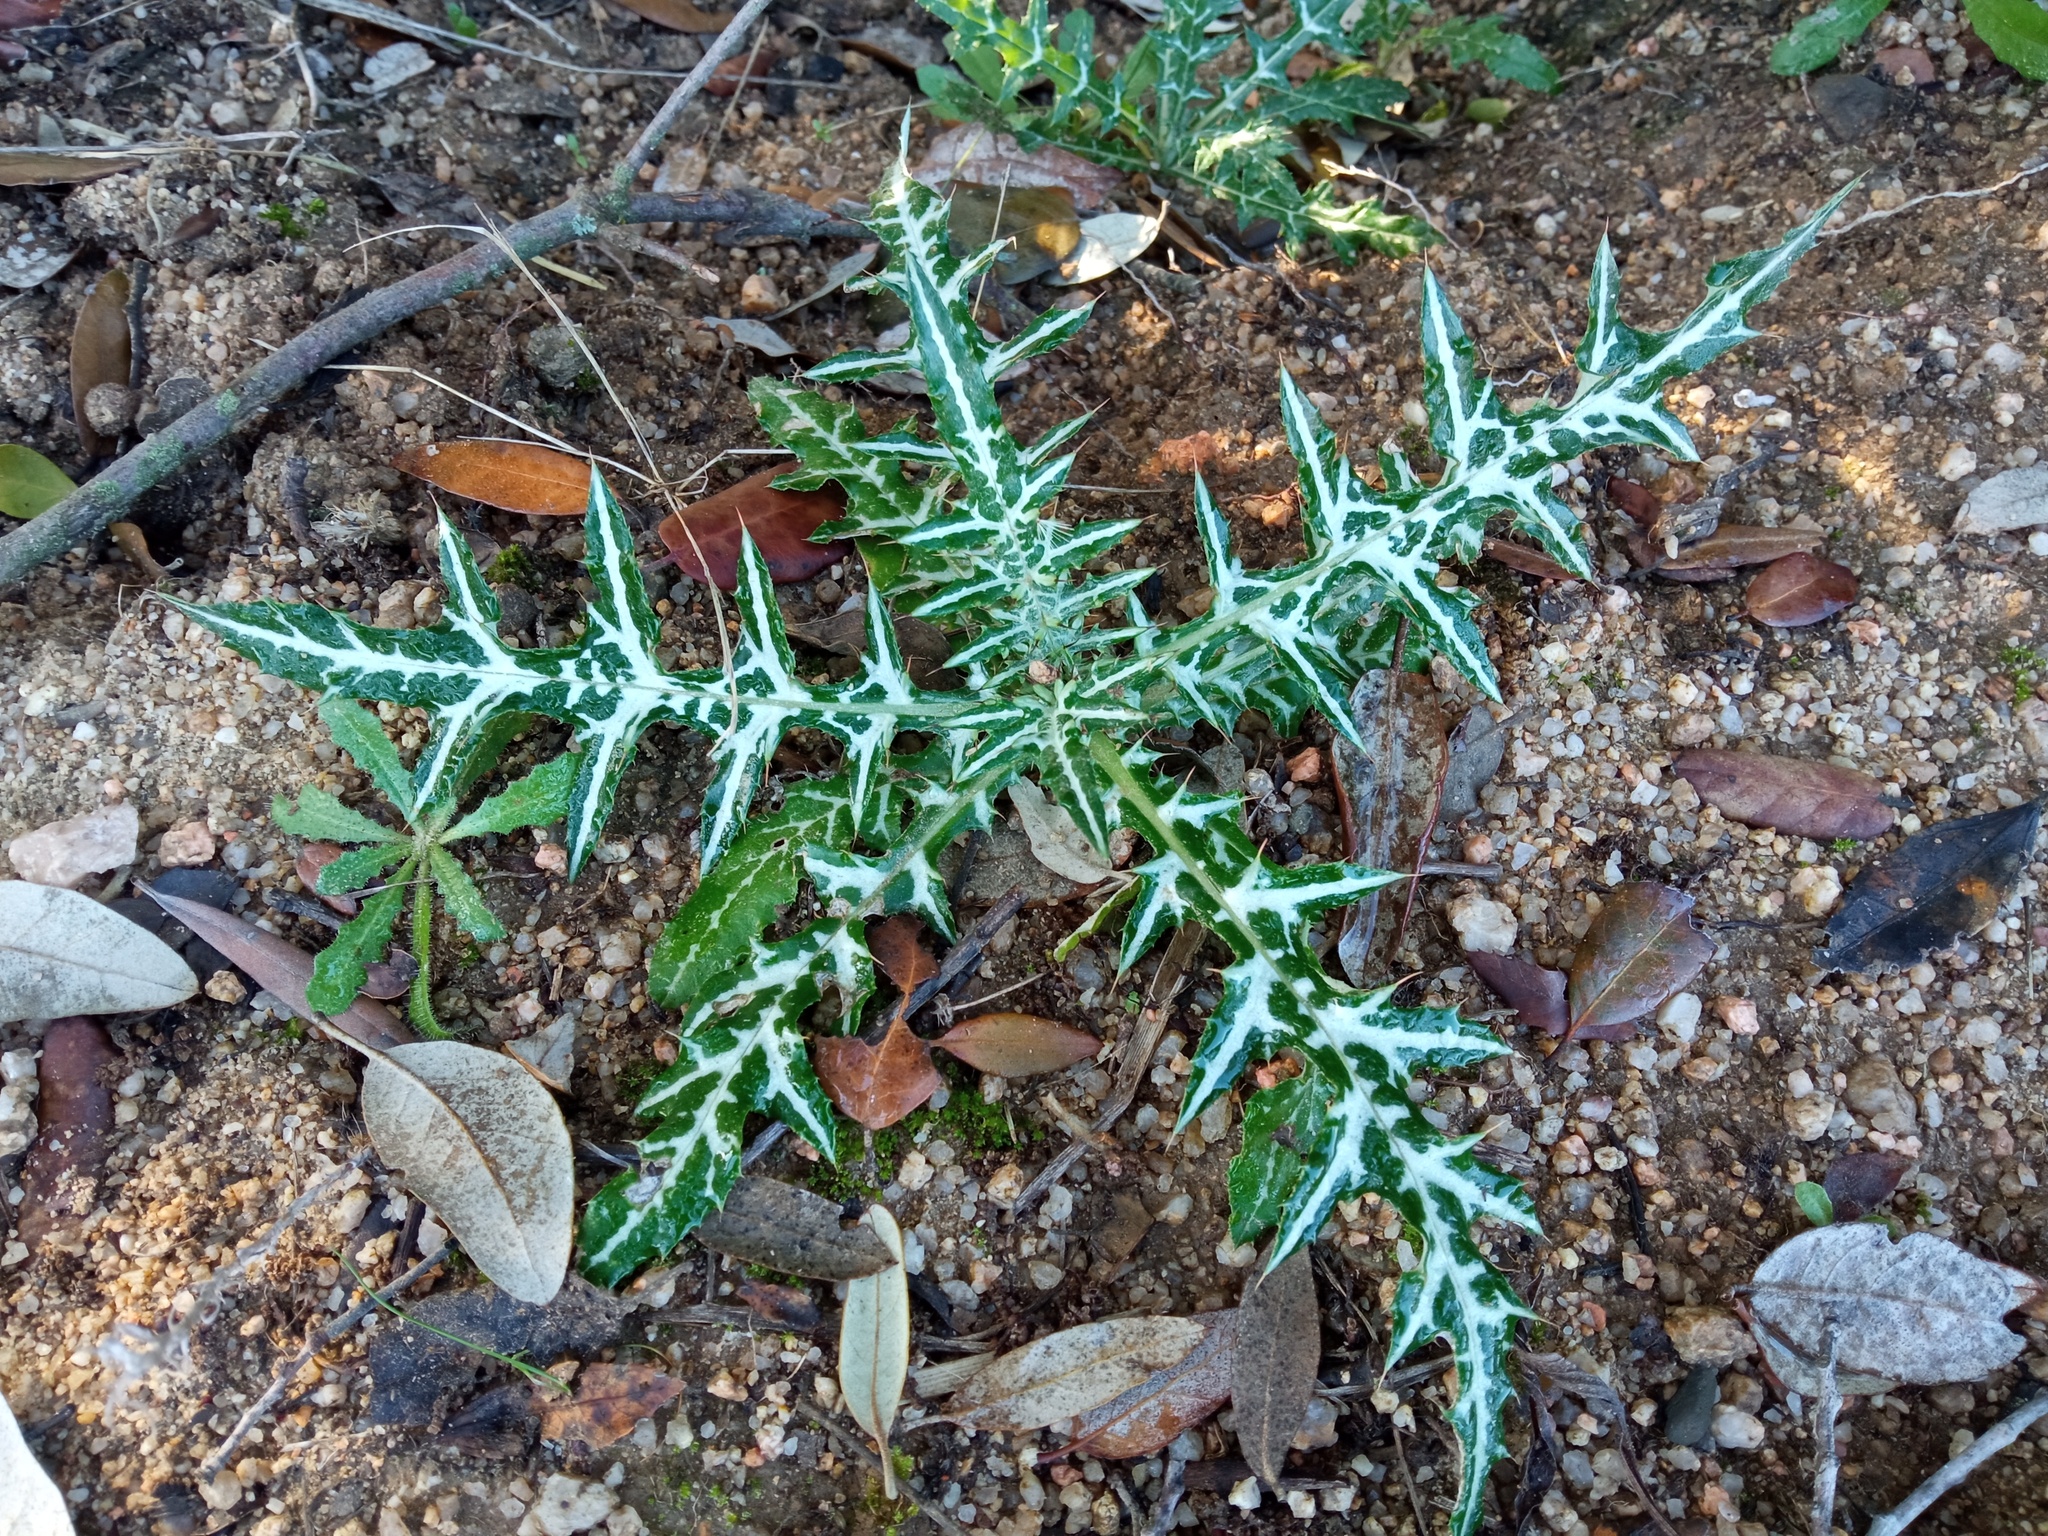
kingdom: Plantae
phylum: Tracheophyta
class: Magnoliopsida
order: Asterales
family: Asteraceae
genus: Galactites
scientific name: Galactites tomentosa
